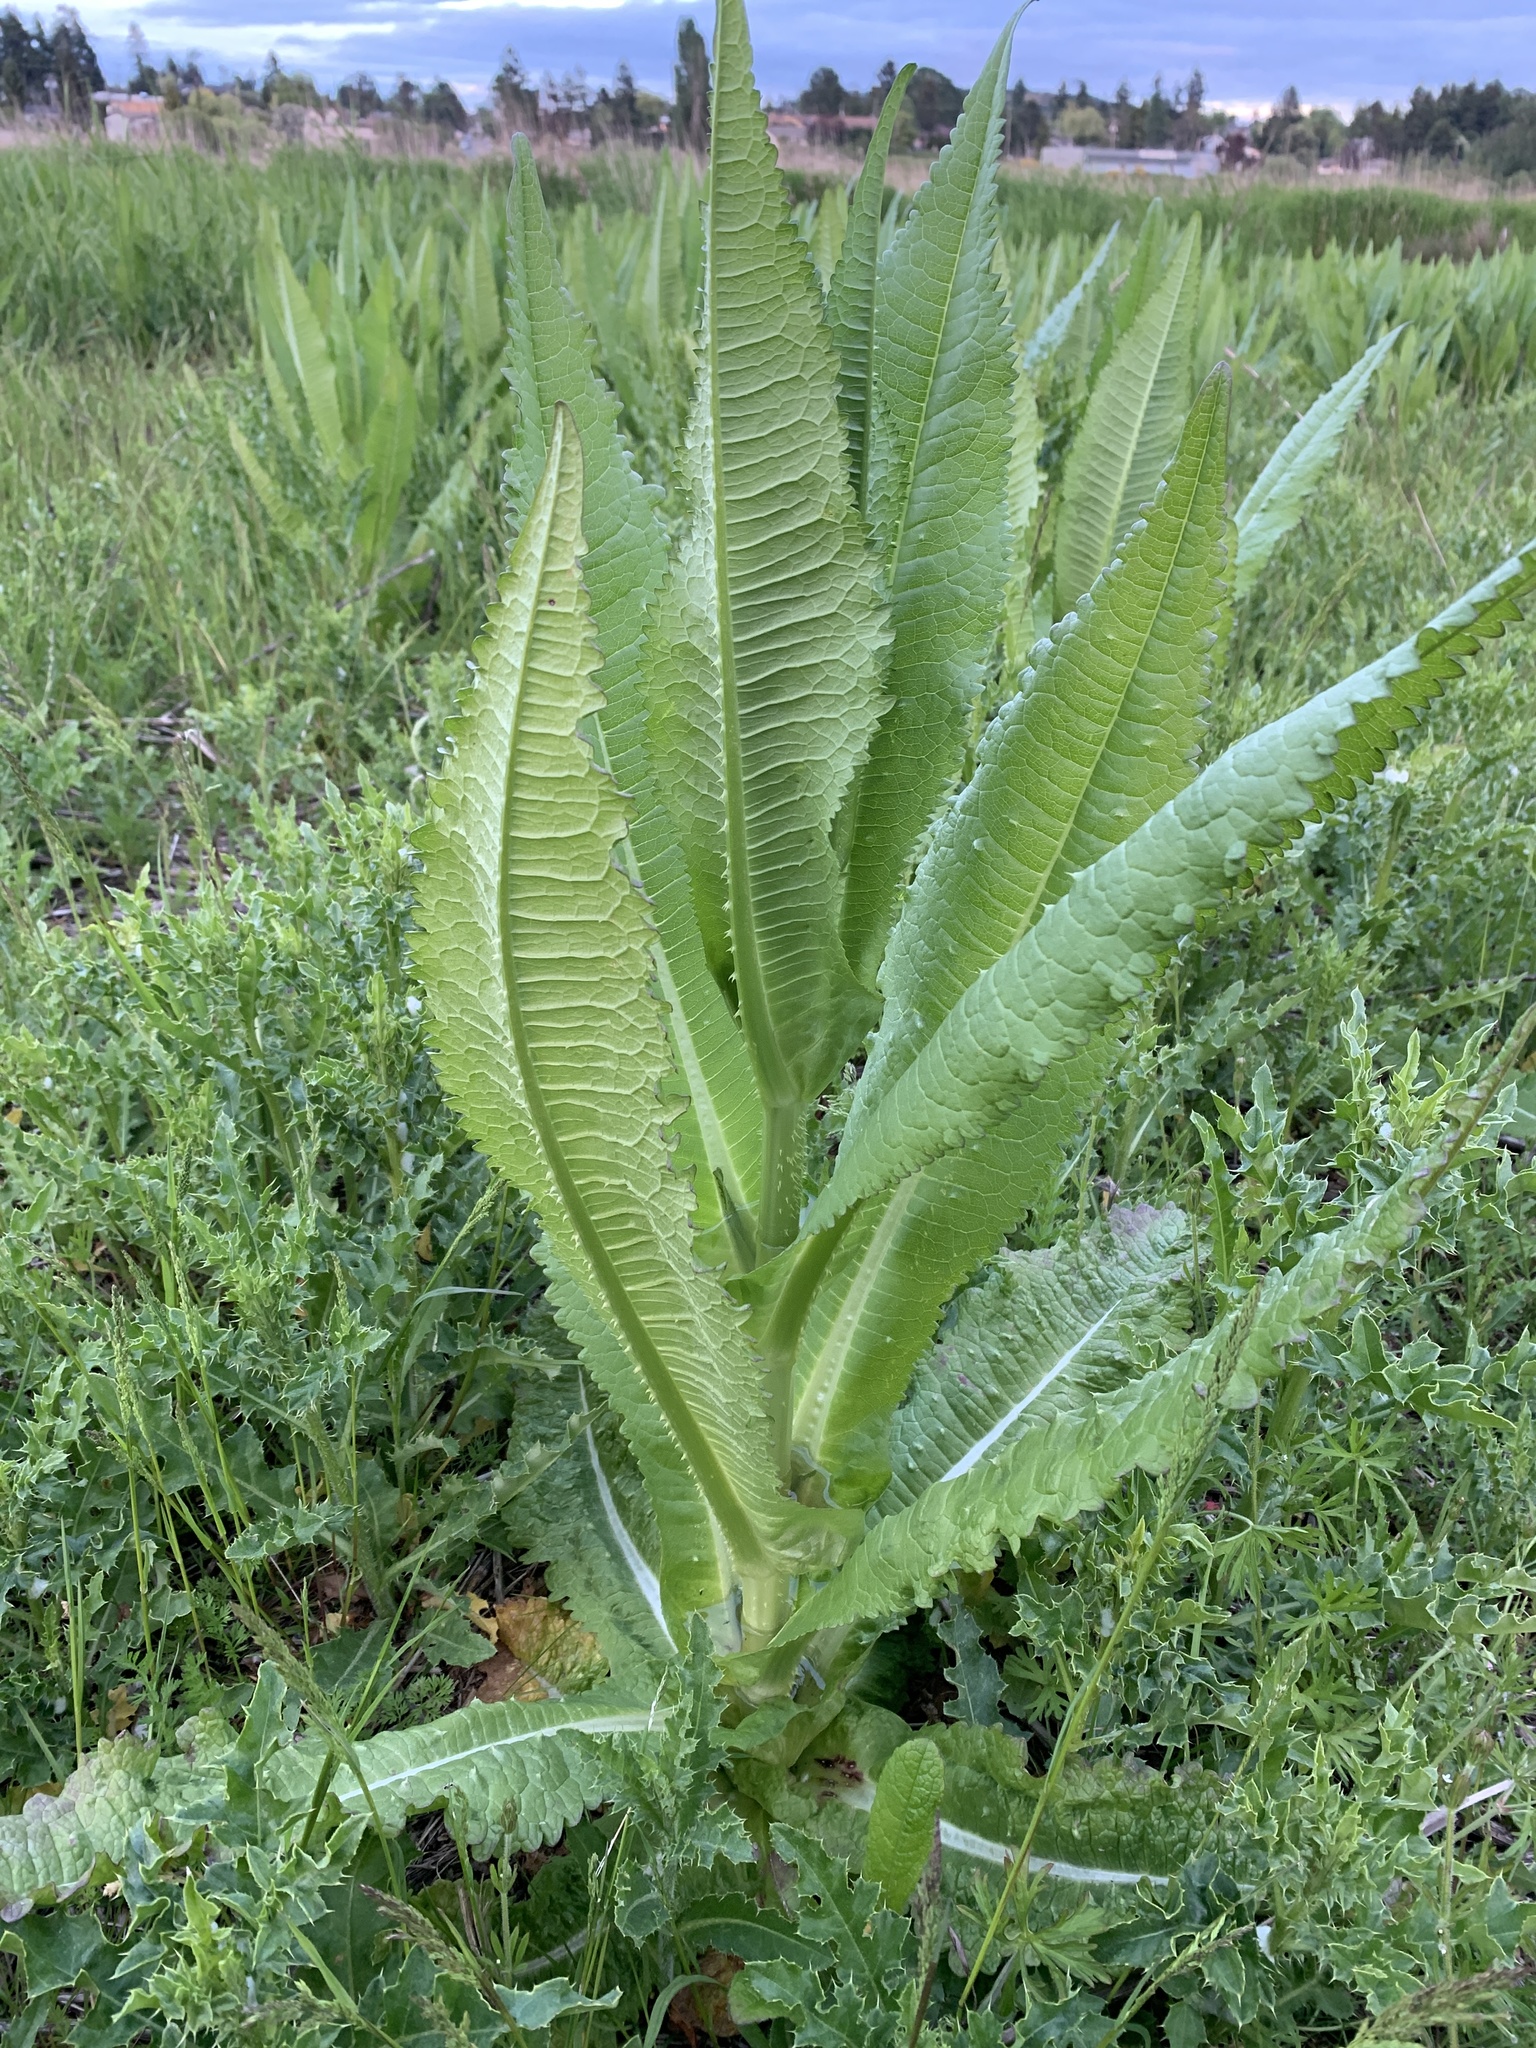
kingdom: Plantae
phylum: Tracheophyta
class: Magnoliopsida
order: Dipsacales
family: Caprifoliaceae
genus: Dipsacus
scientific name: Dipsacus fullonum
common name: Teasel
